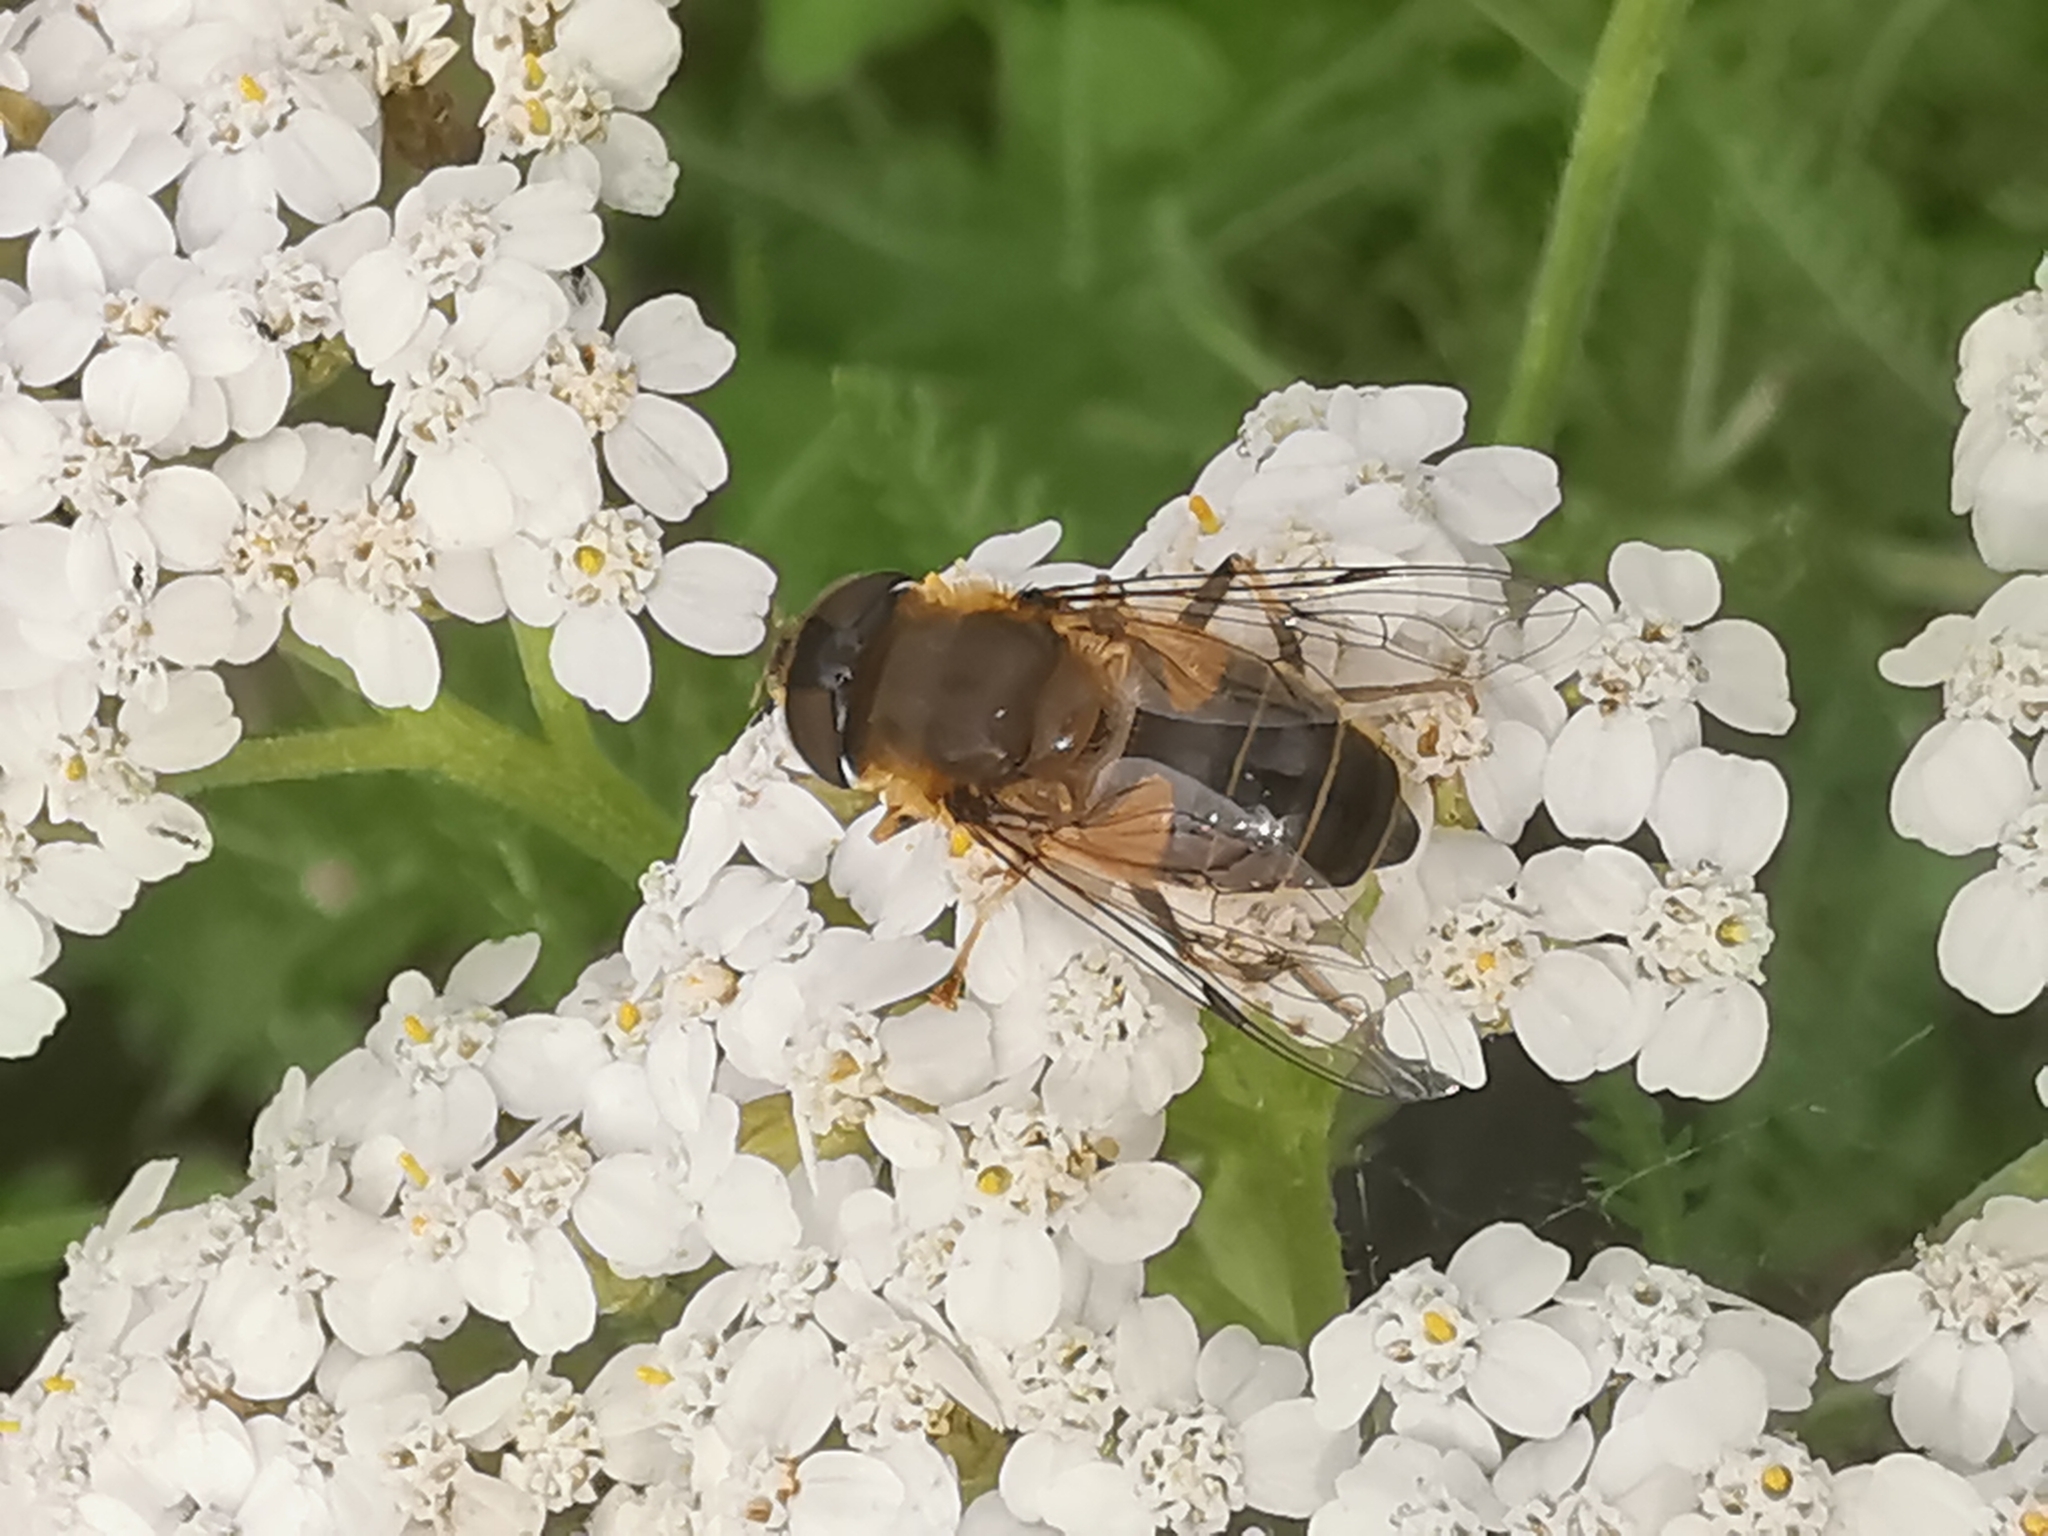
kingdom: Animalia
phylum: Arthropoda
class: Insecta
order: Diptera
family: Syrphidae
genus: Eristalis
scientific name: Eristalis pertinax
